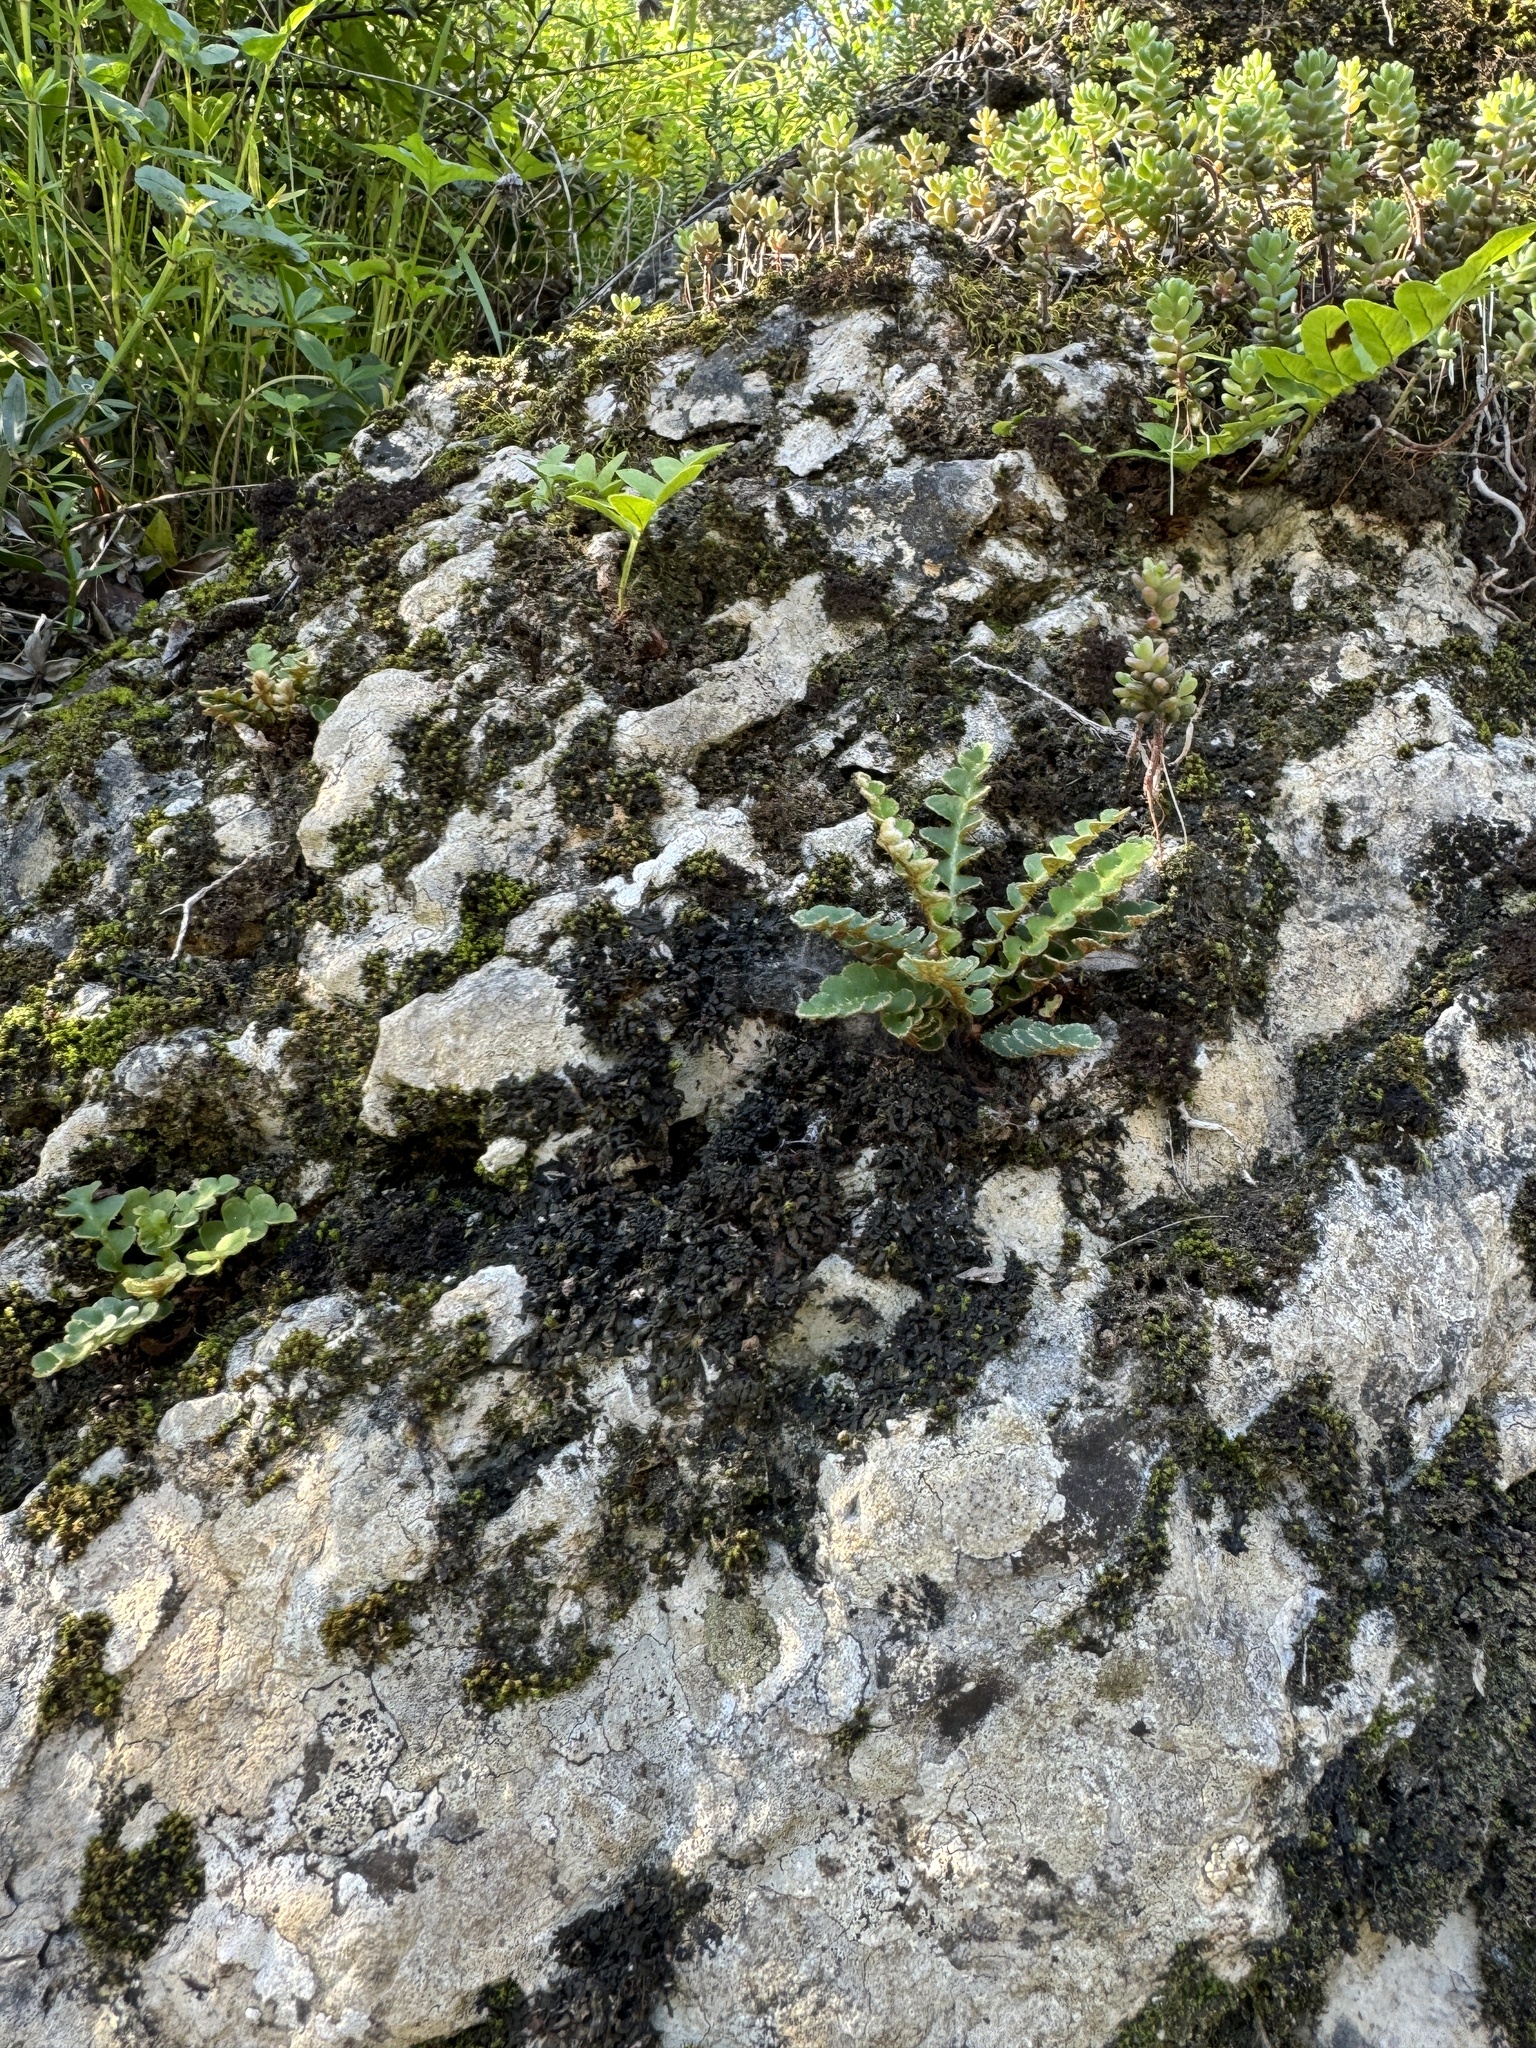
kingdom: Plantae
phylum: Tracheophyta
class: Polypodiopsida
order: Polypodiales
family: Aspleniaceae
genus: Asplenium
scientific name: Asplenium ceterach
